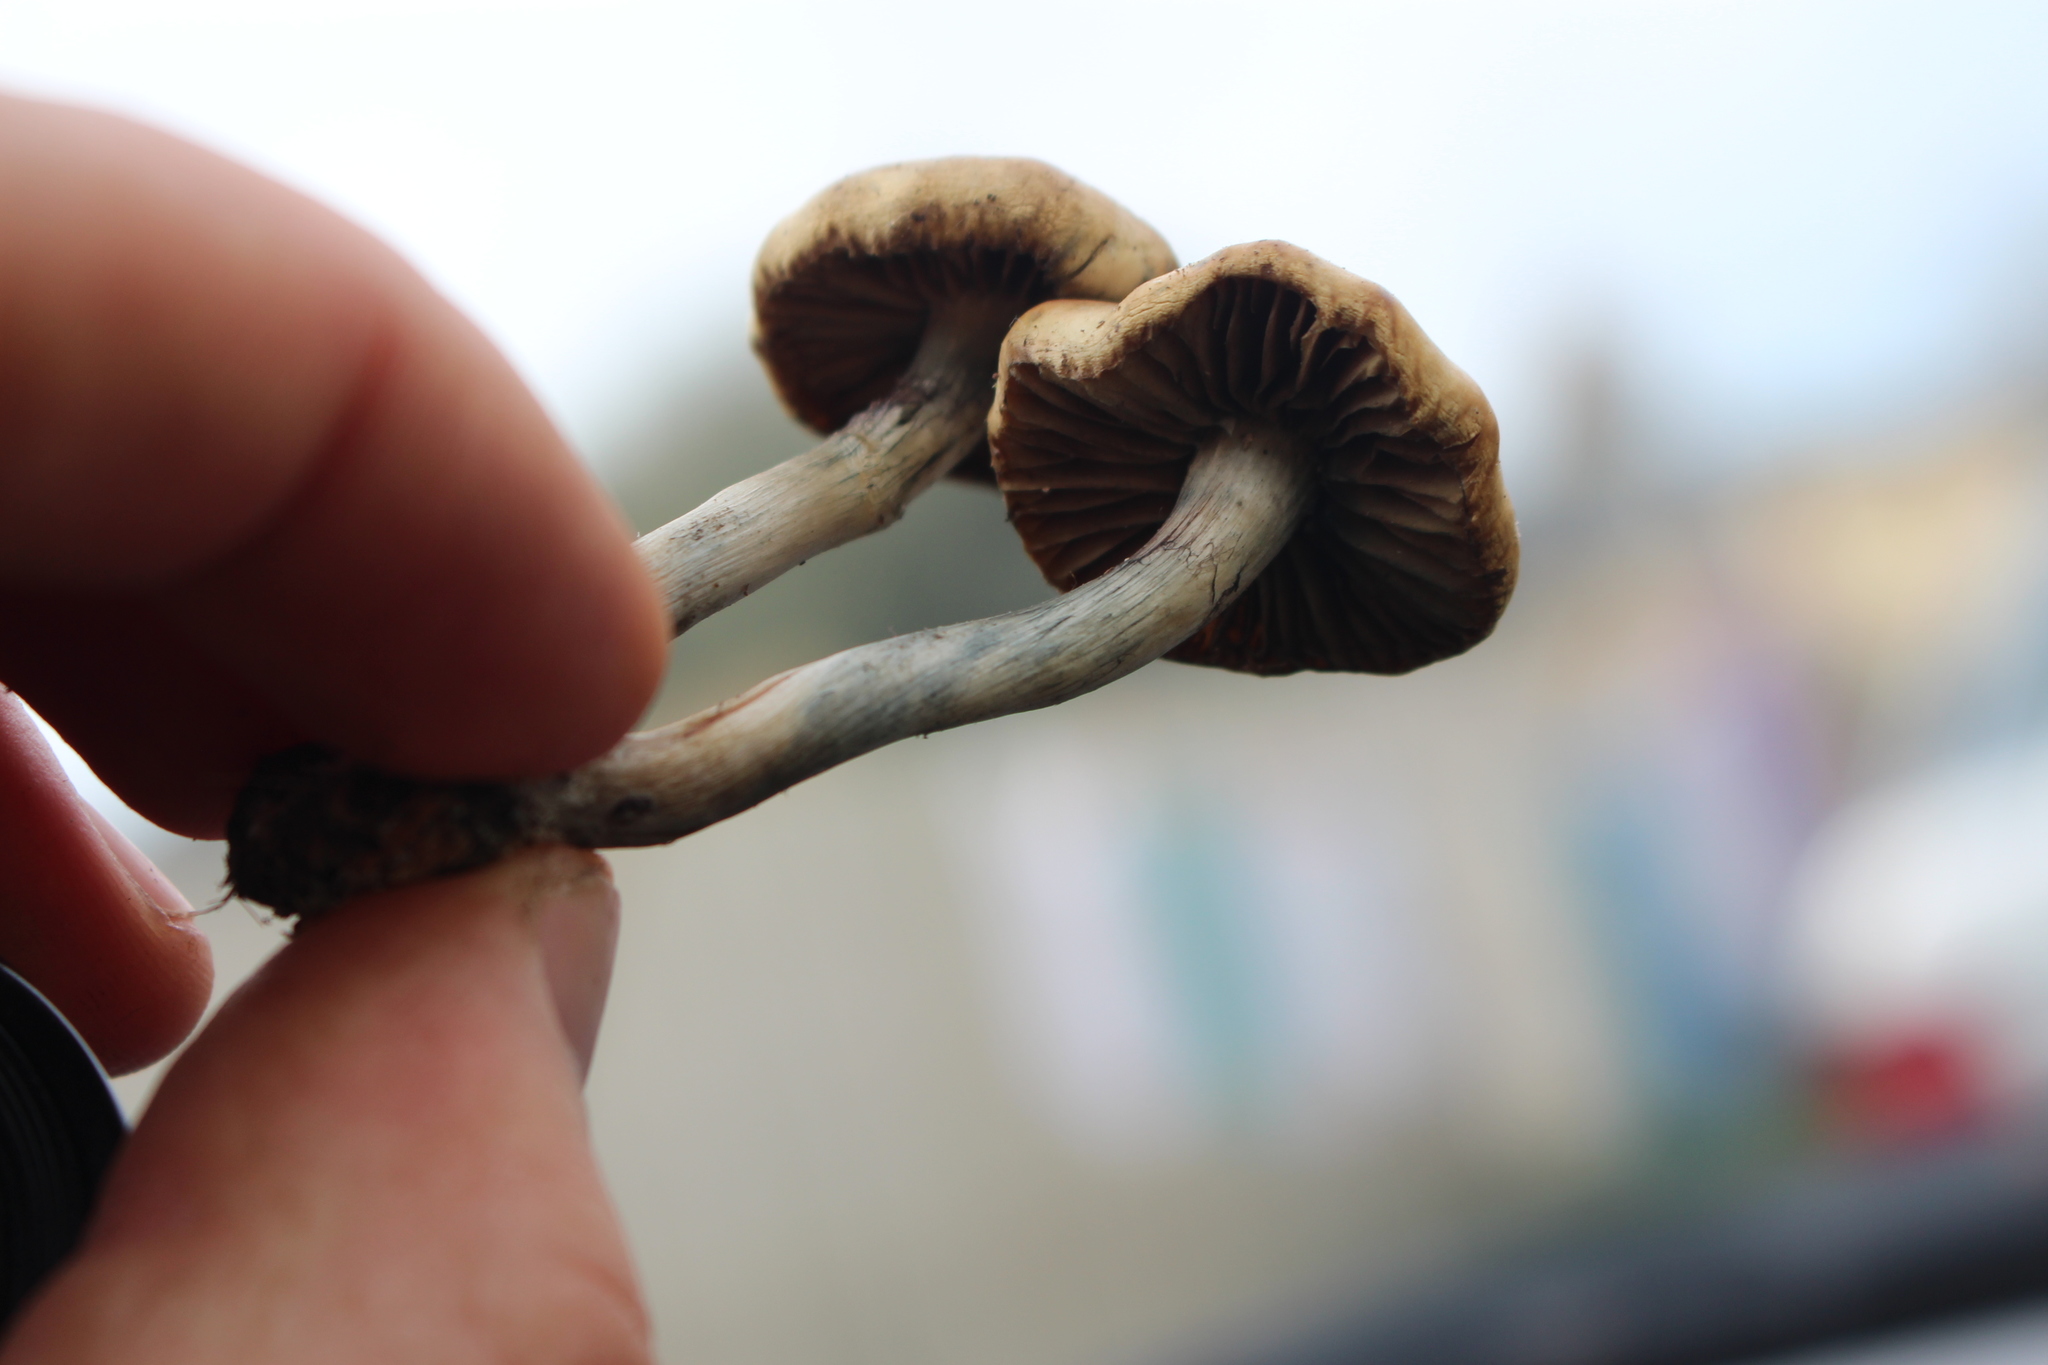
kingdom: Fungi
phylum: Basidiomycota
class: Agaricomycetes
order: Agaricales
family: Hymenogastraceae
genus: Psilocybe
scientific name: Psilocybe subaeruginosa
